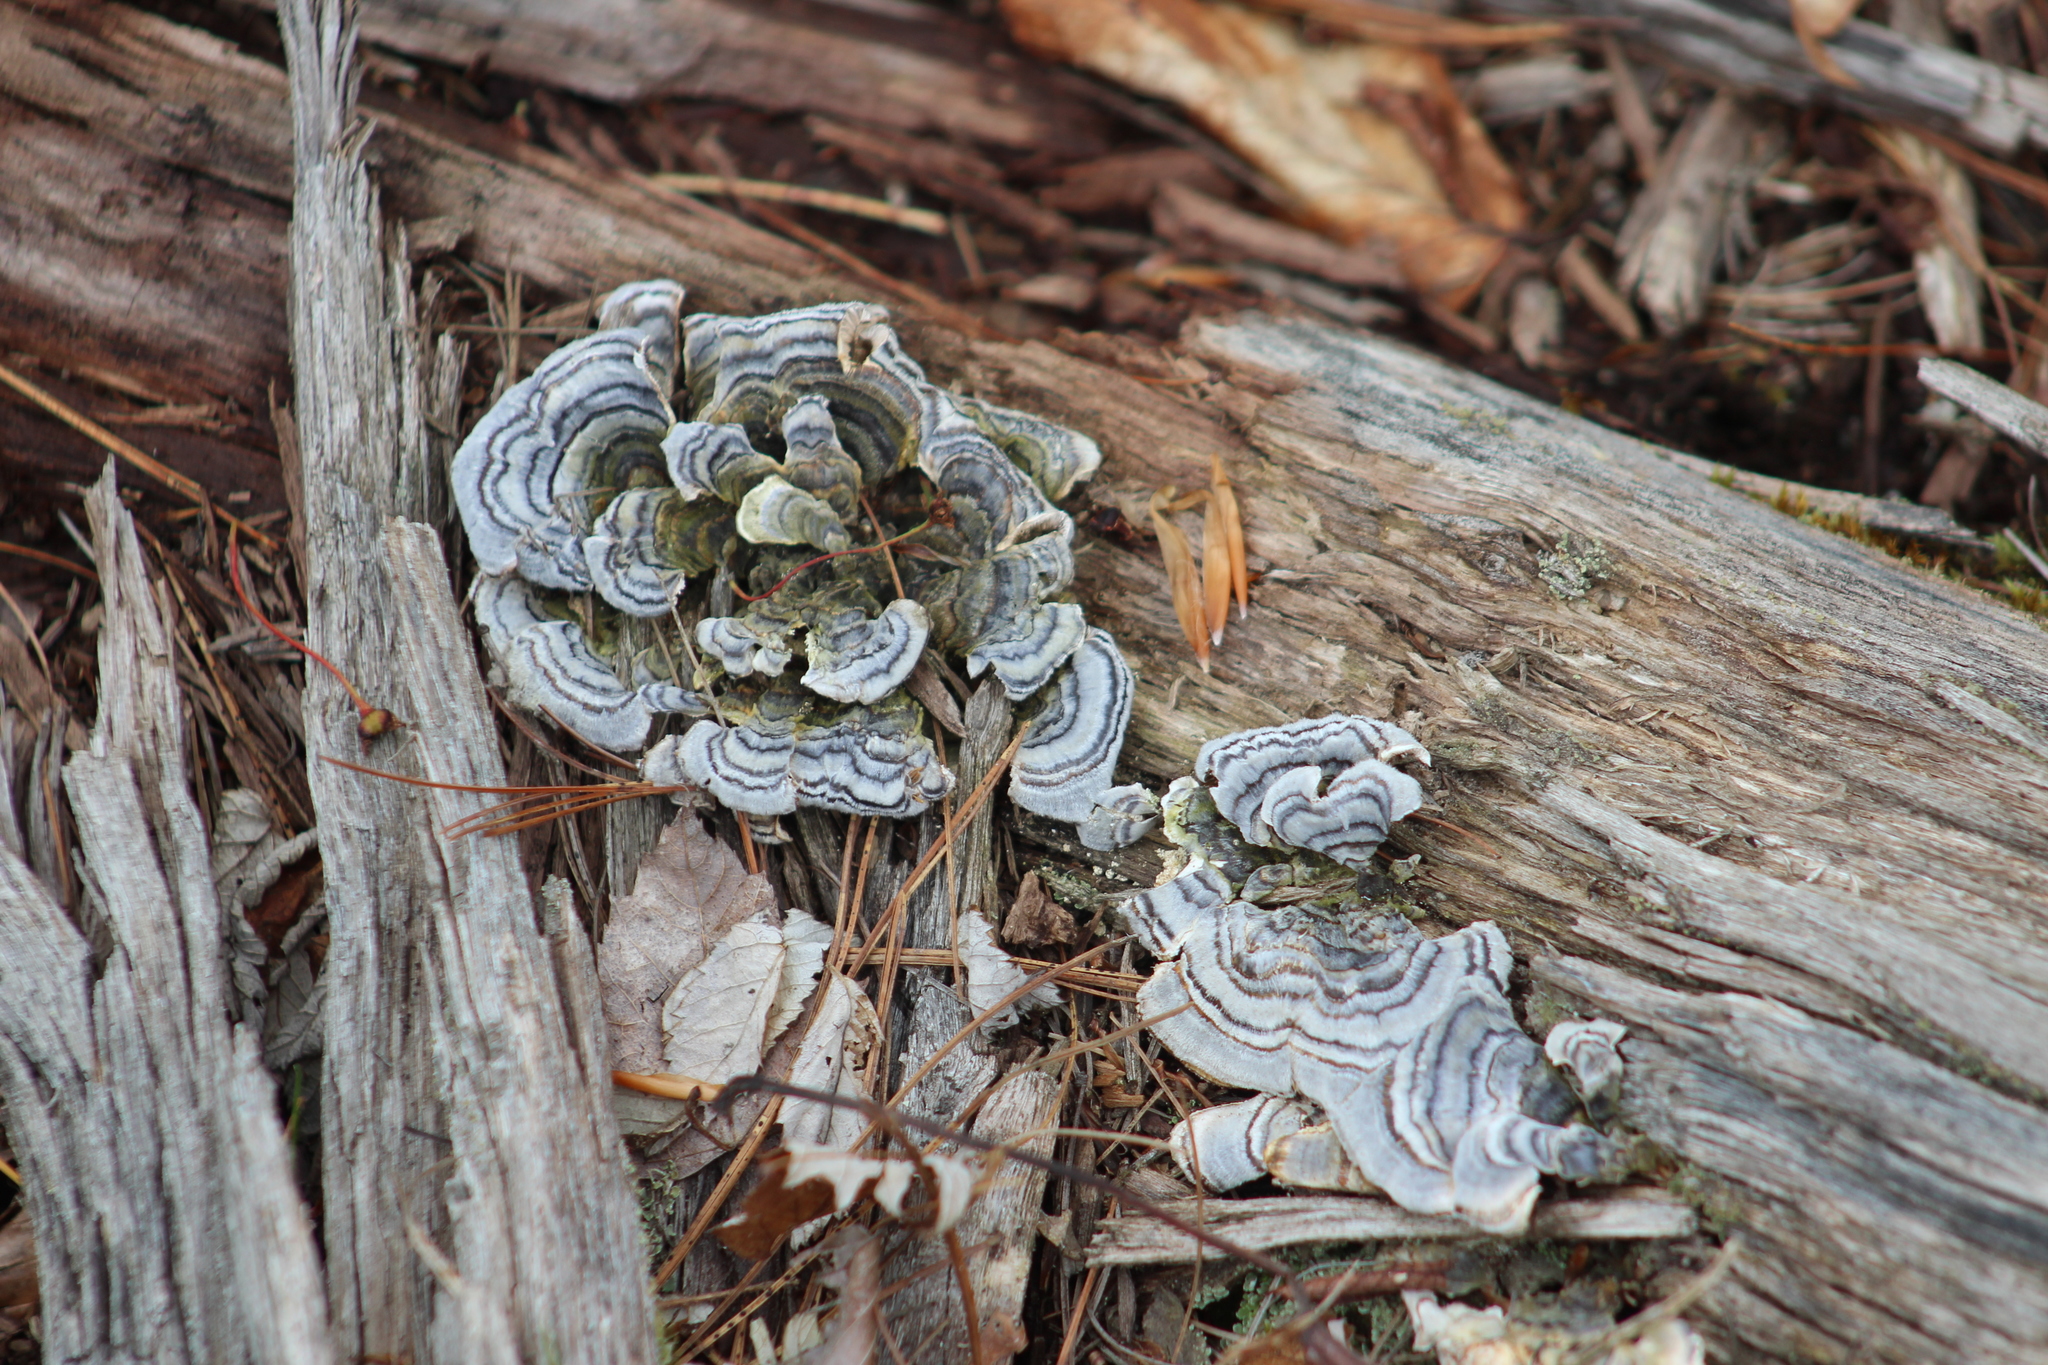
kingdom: Fungi
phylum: Basidiomycota
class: Agaricomycetes
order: Polyporales
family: Polyporaceae
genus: Trametes
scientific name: Trametes versicolor
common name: Turkeytail
